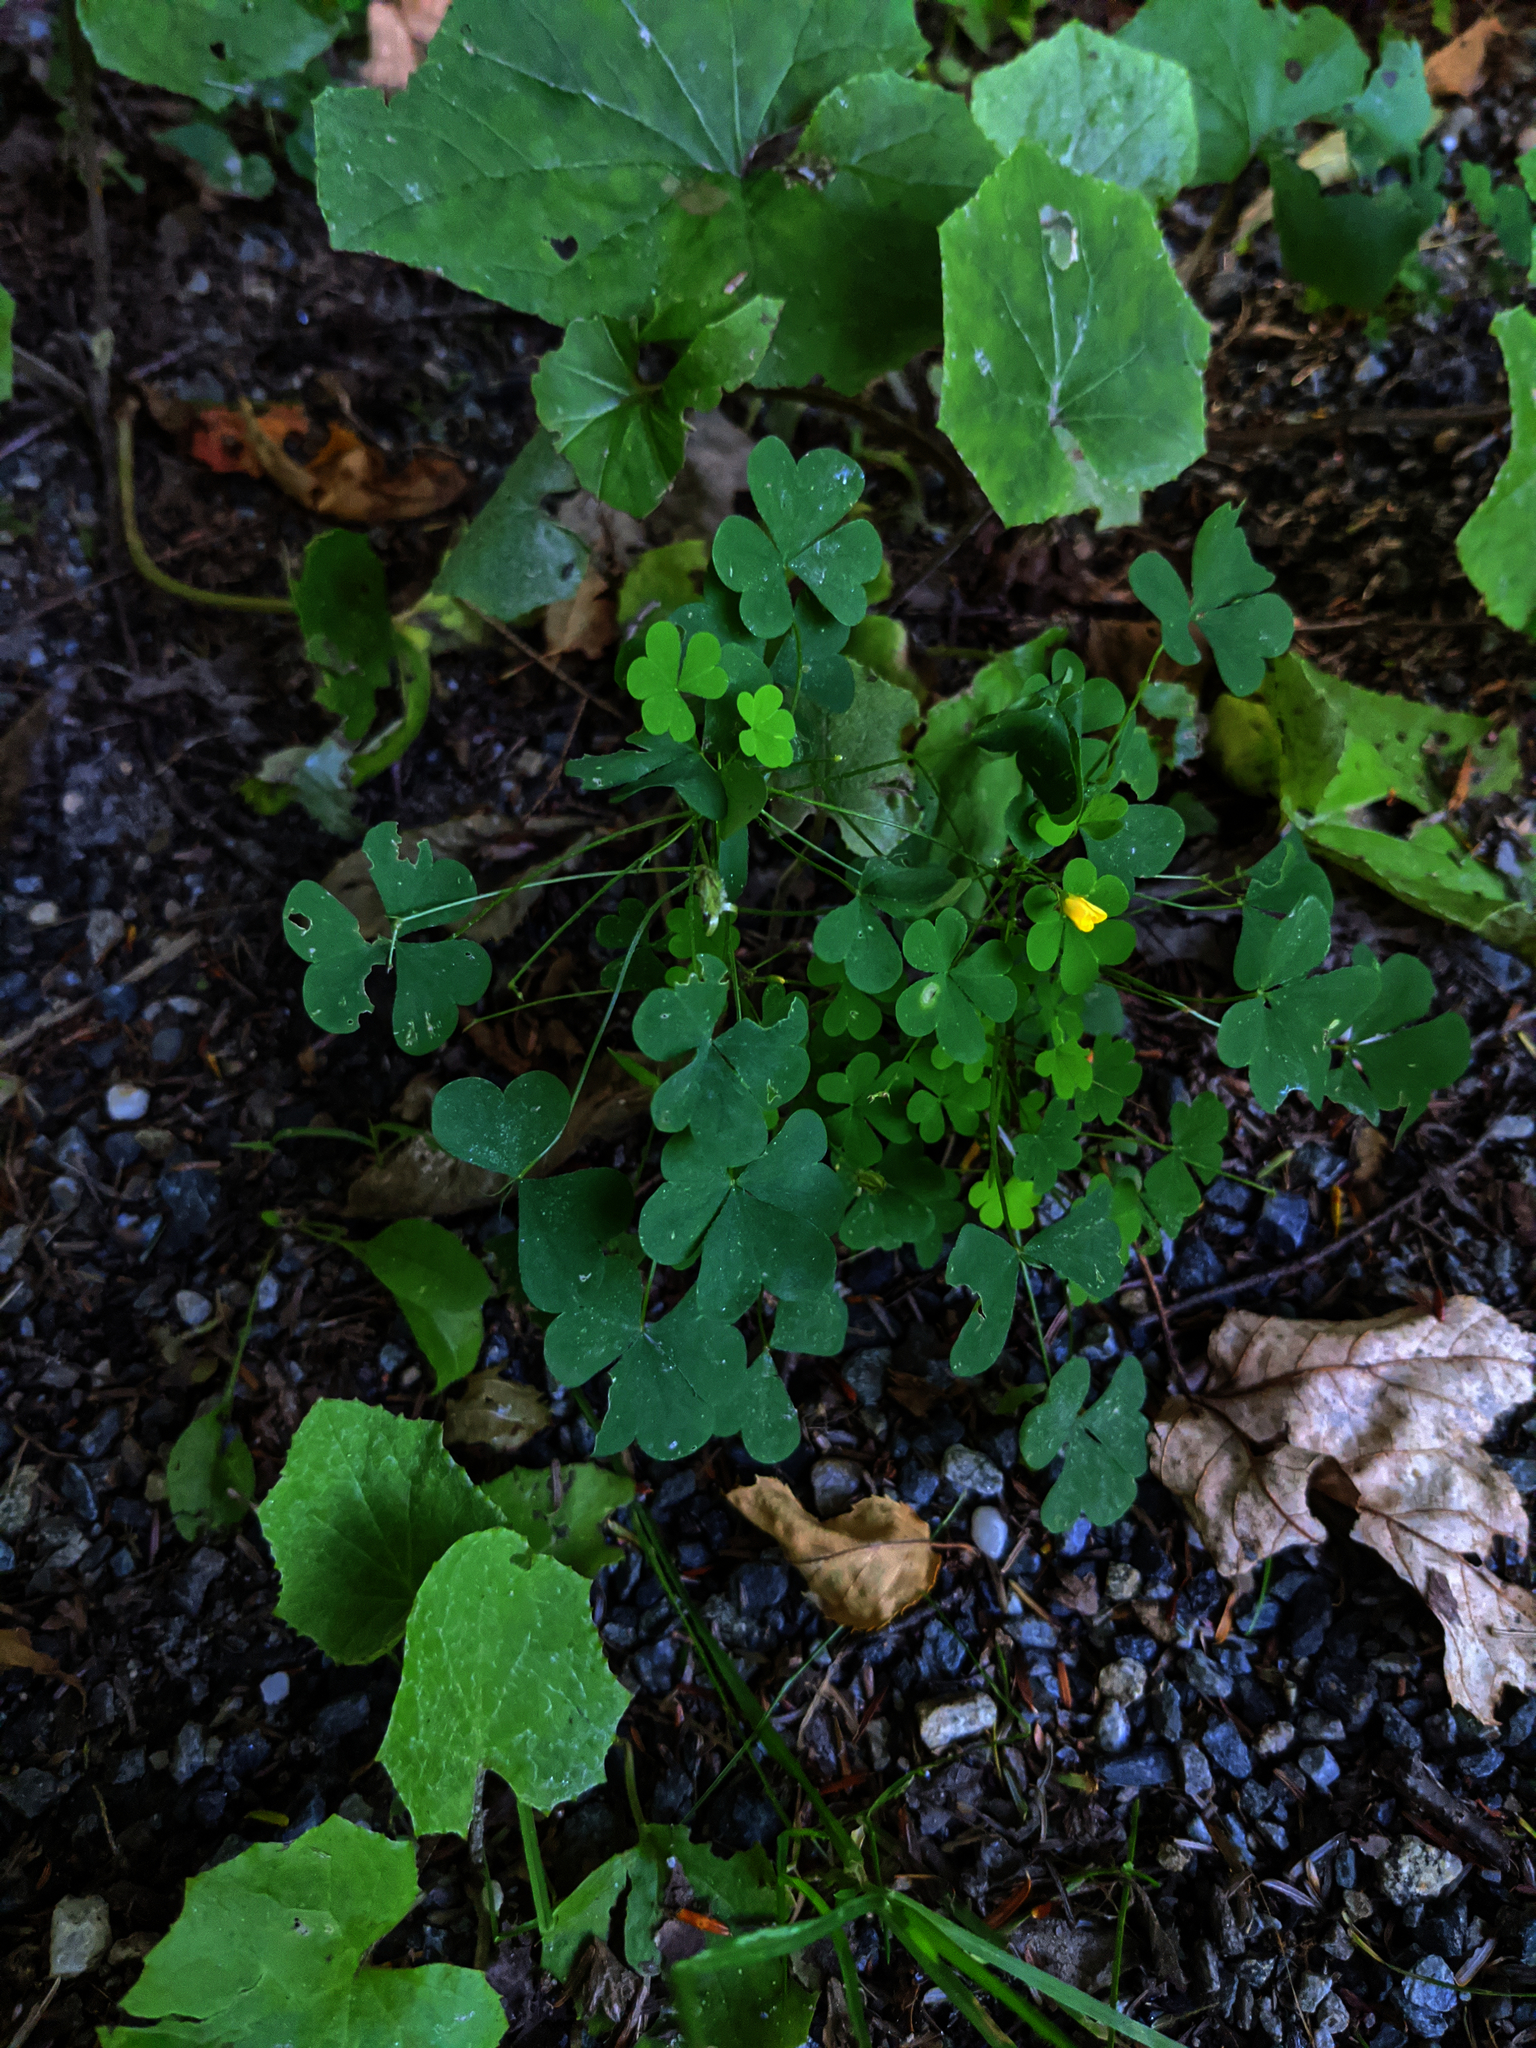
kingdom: Plantae
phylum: Tracheophyta
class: Magnoliopsida
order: Asterales
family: Asteraceae
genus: Tussilago
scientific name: Tussilago farfara
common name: Coltsfoot
